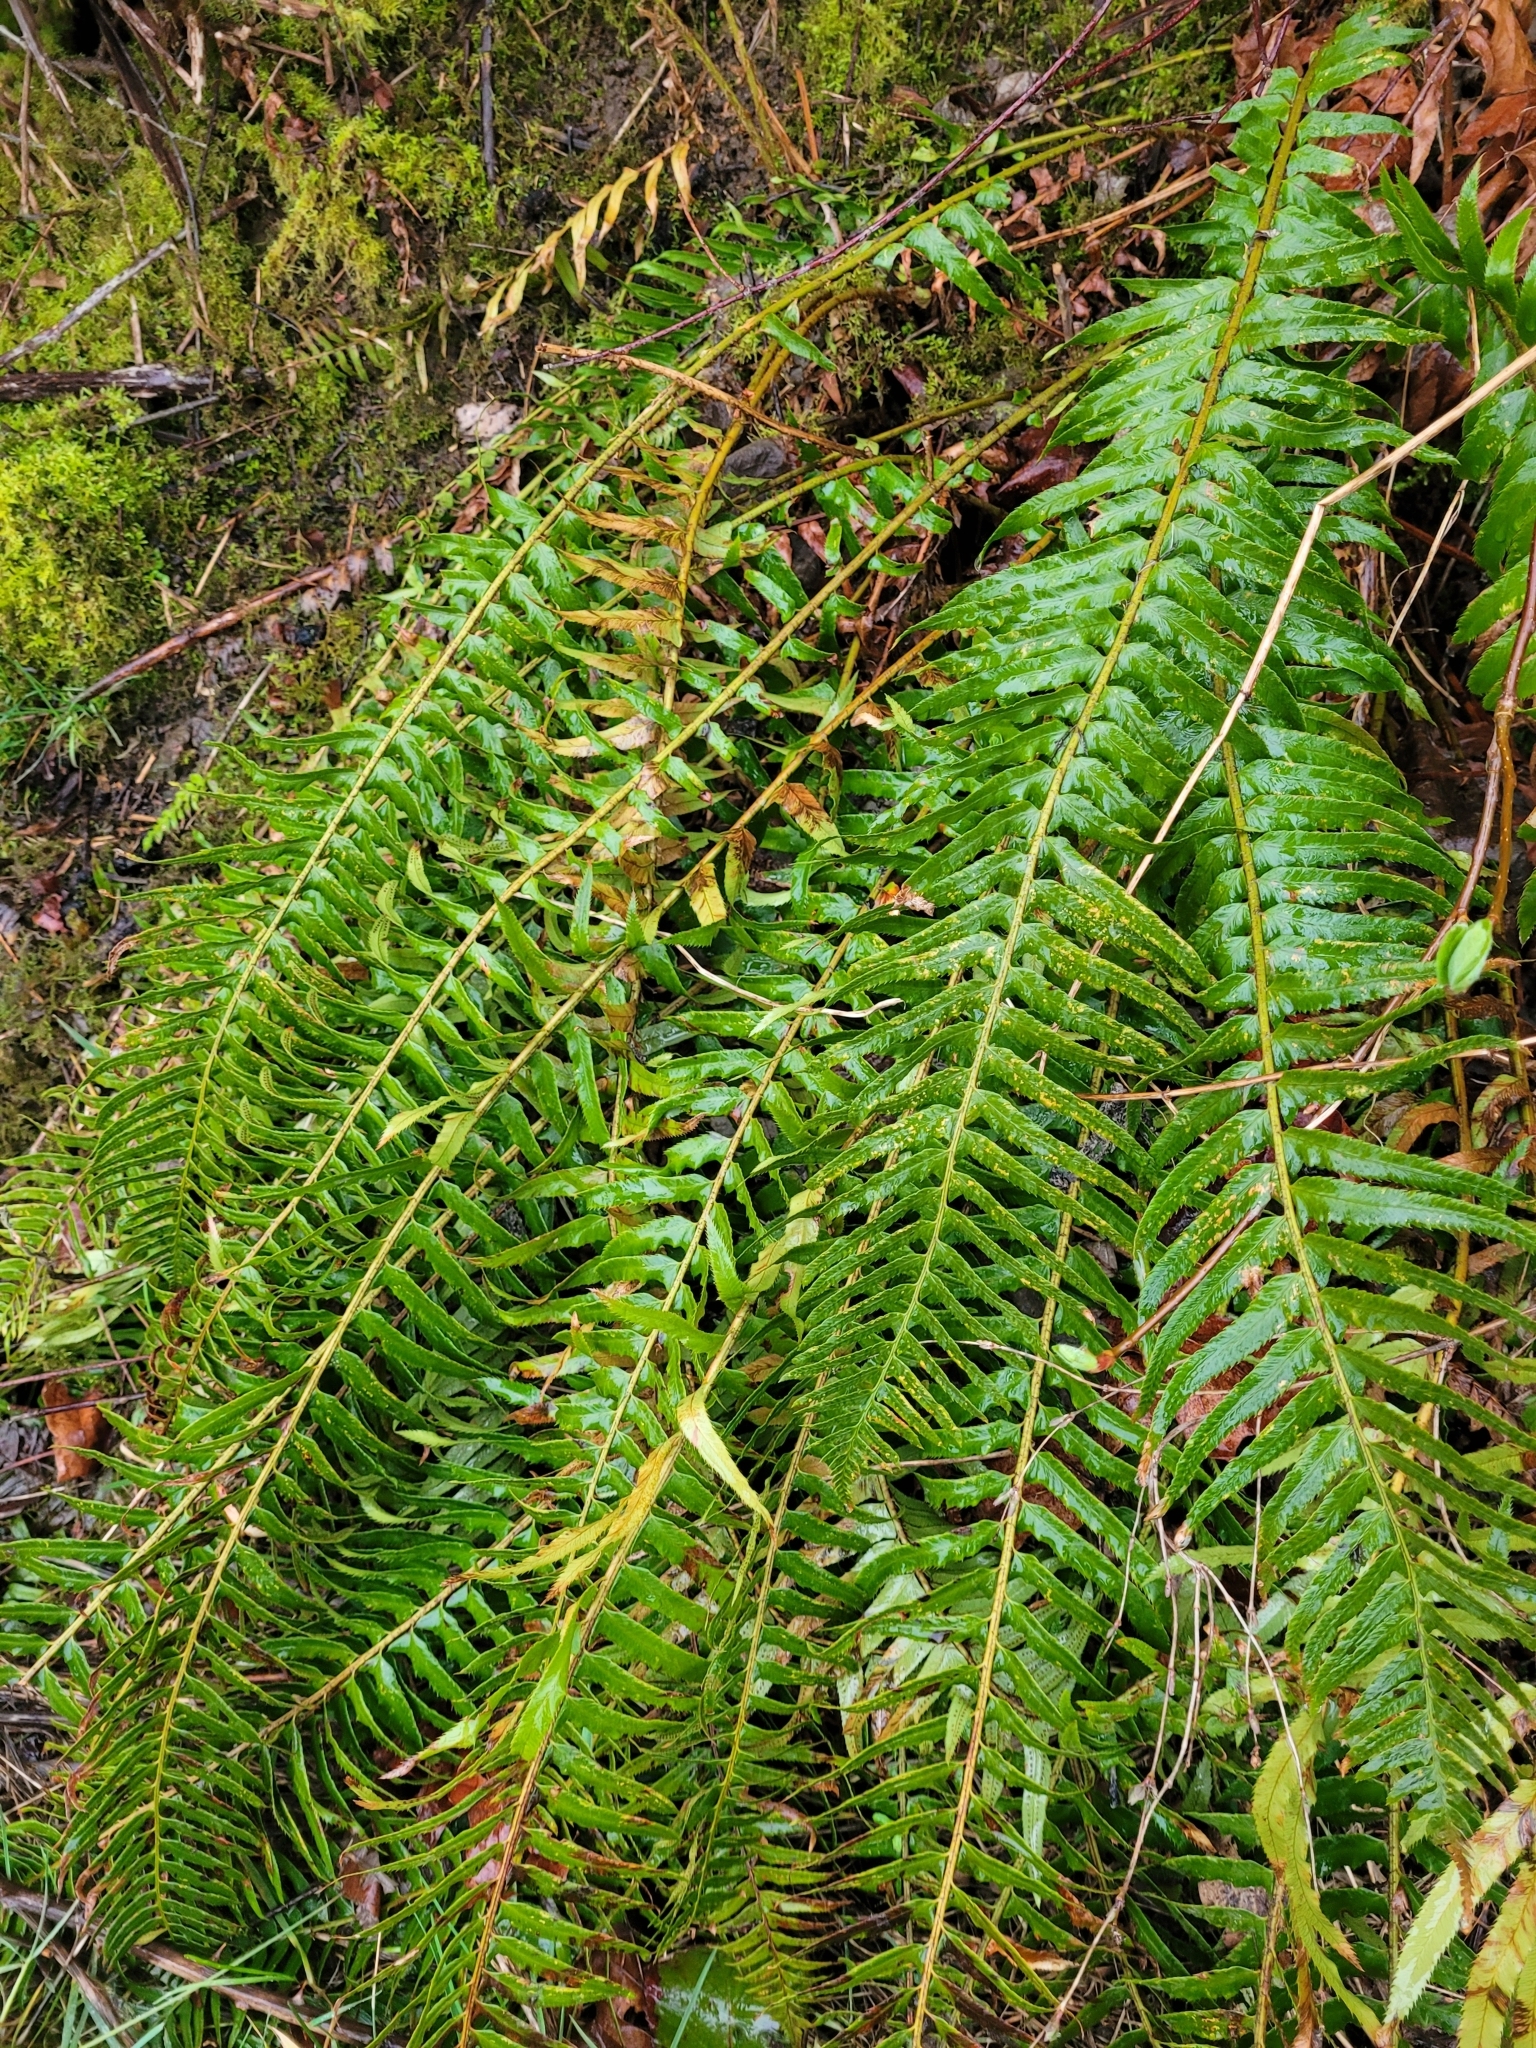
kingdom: Plantae
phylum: Tracheophyta
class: Polypodiopsida
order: Polypodiales
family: Dryopteridaceae
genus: Polystichum
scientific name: Polystichum munitum
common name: Western sword-fern
